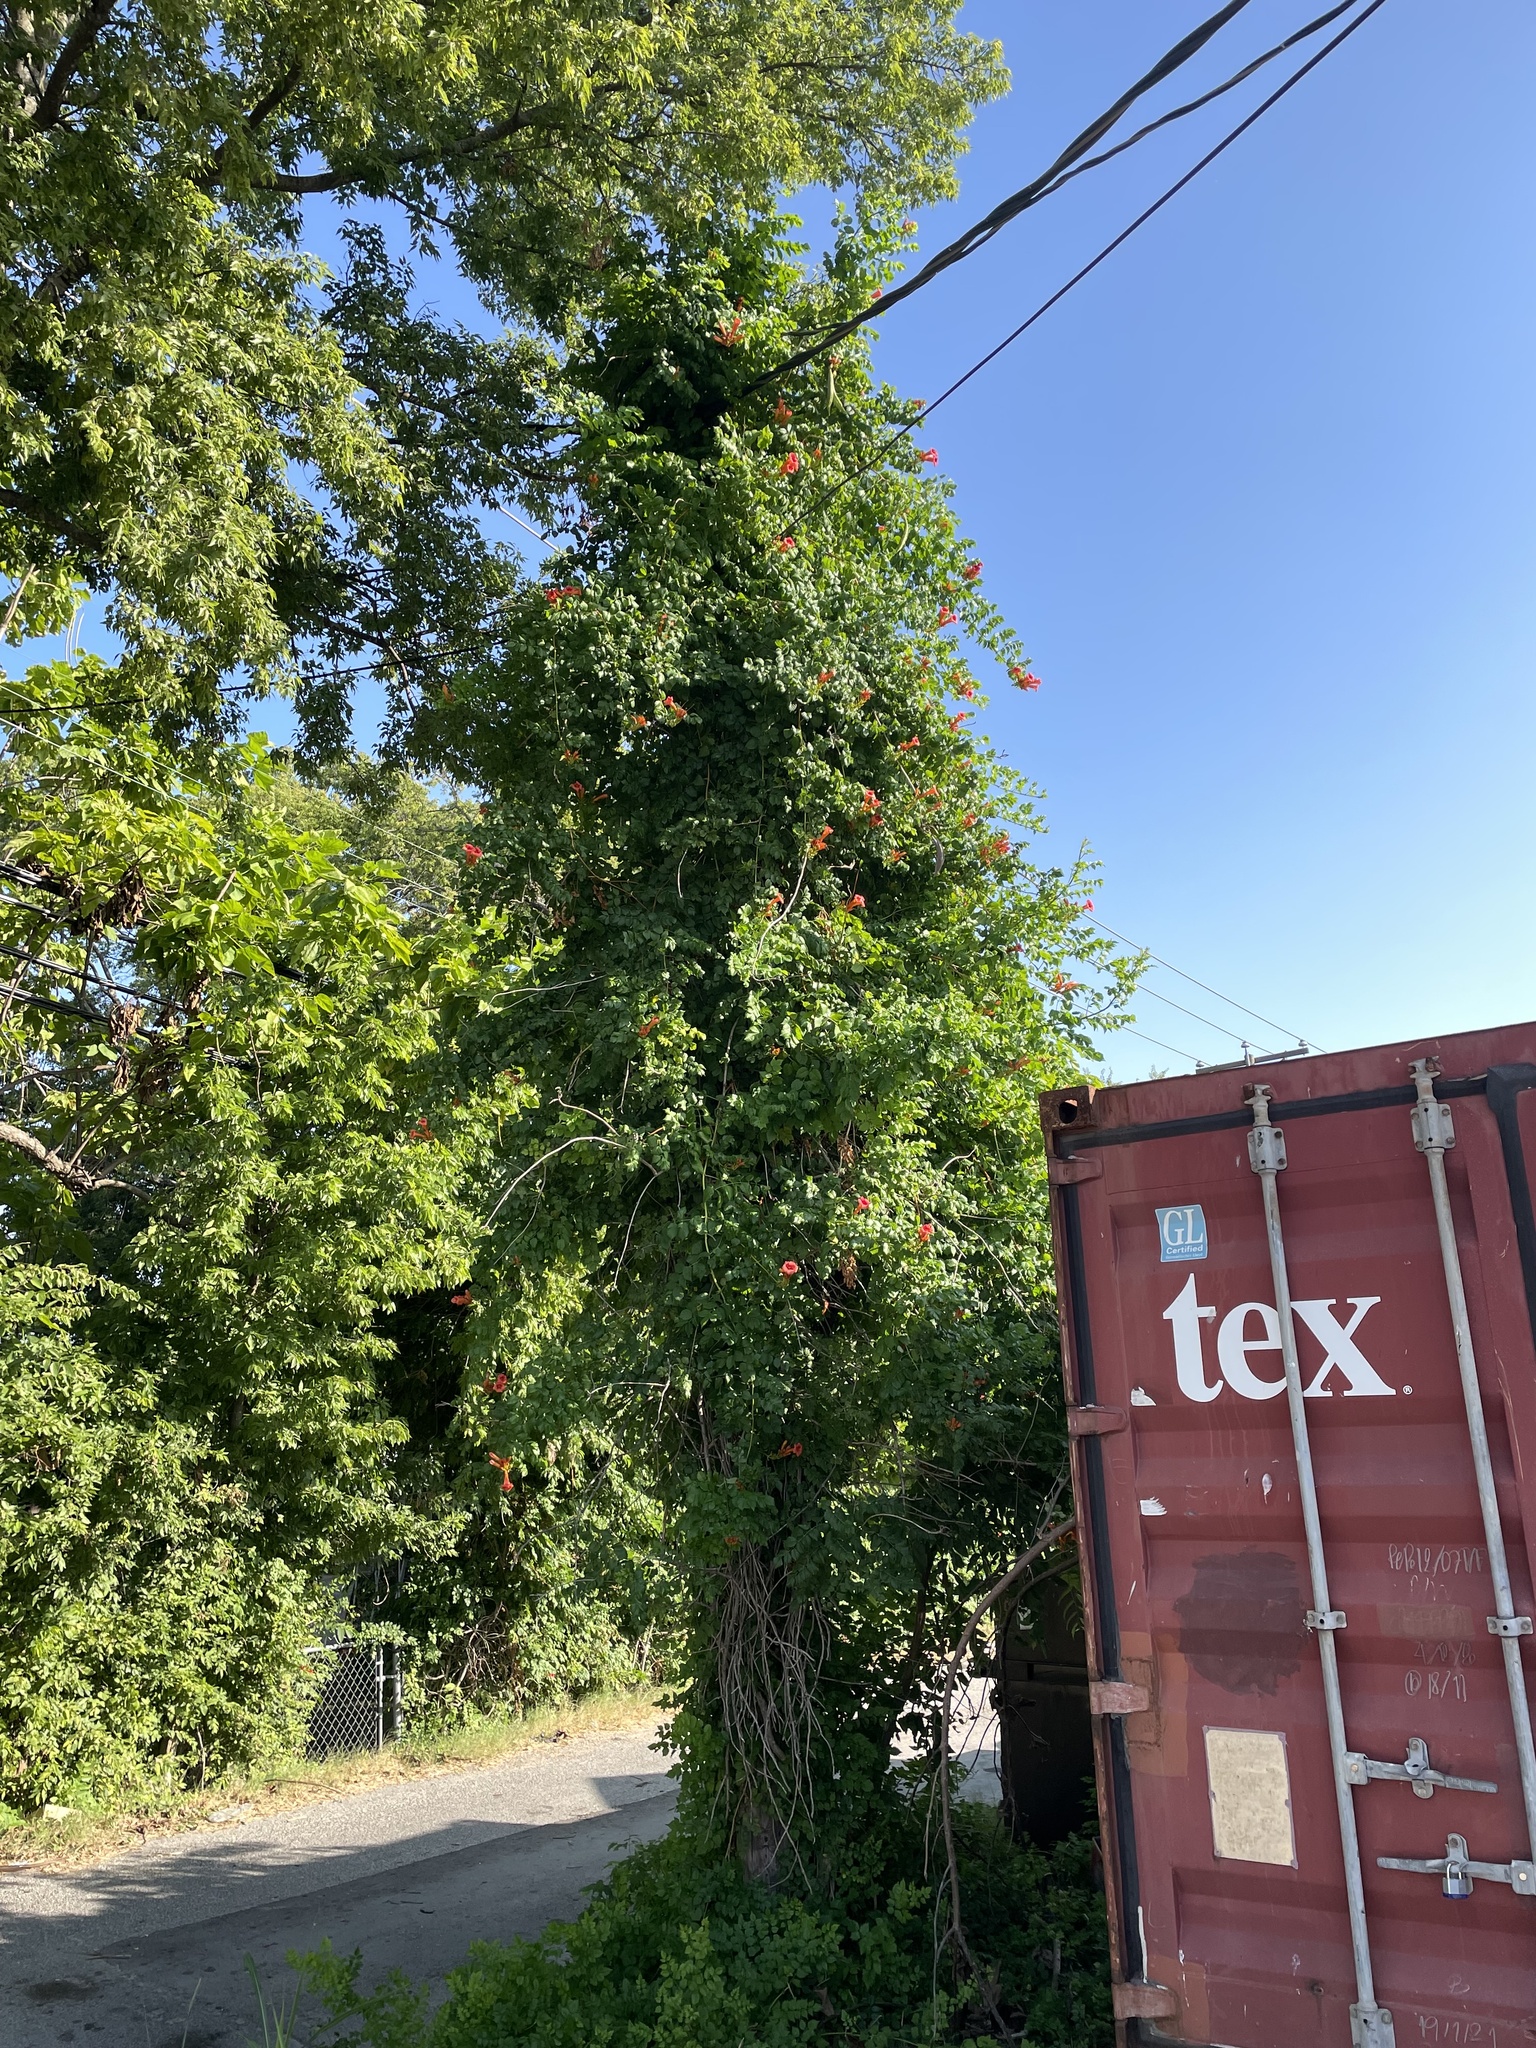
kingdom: Plantae
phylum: Tracheophyta
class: Magnoliopsida
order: Lamiales
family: Bignoniaceae
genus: Campsis
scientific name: Campsis radicans
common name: Trumpet-creeper
